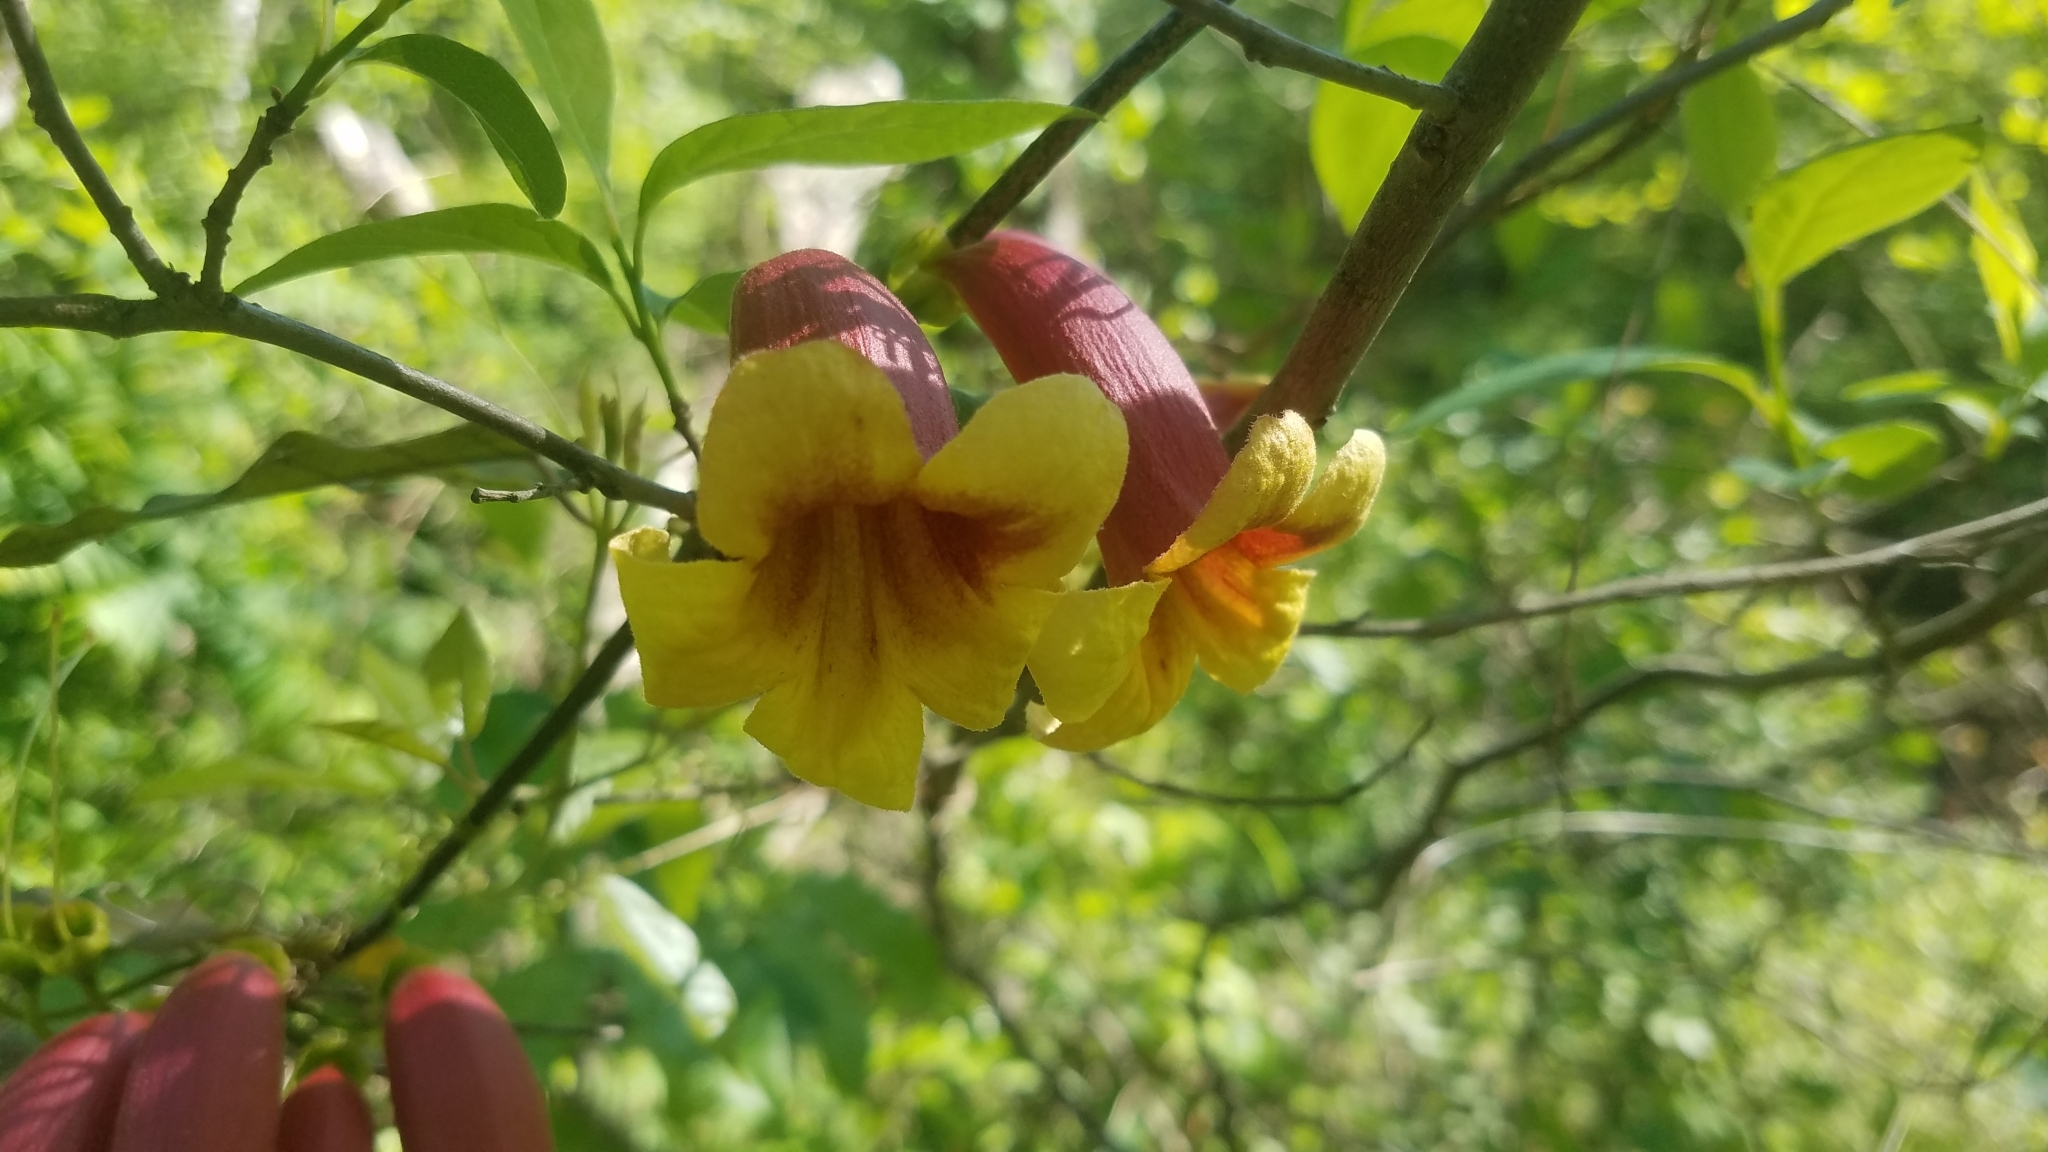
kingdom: Plantae
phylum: Tracheophyta
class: Magnoliopsida
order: Lamiales
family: Bignoniaceae
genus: Bignonia
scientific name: Bignonia capreolata
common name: Crossvine
